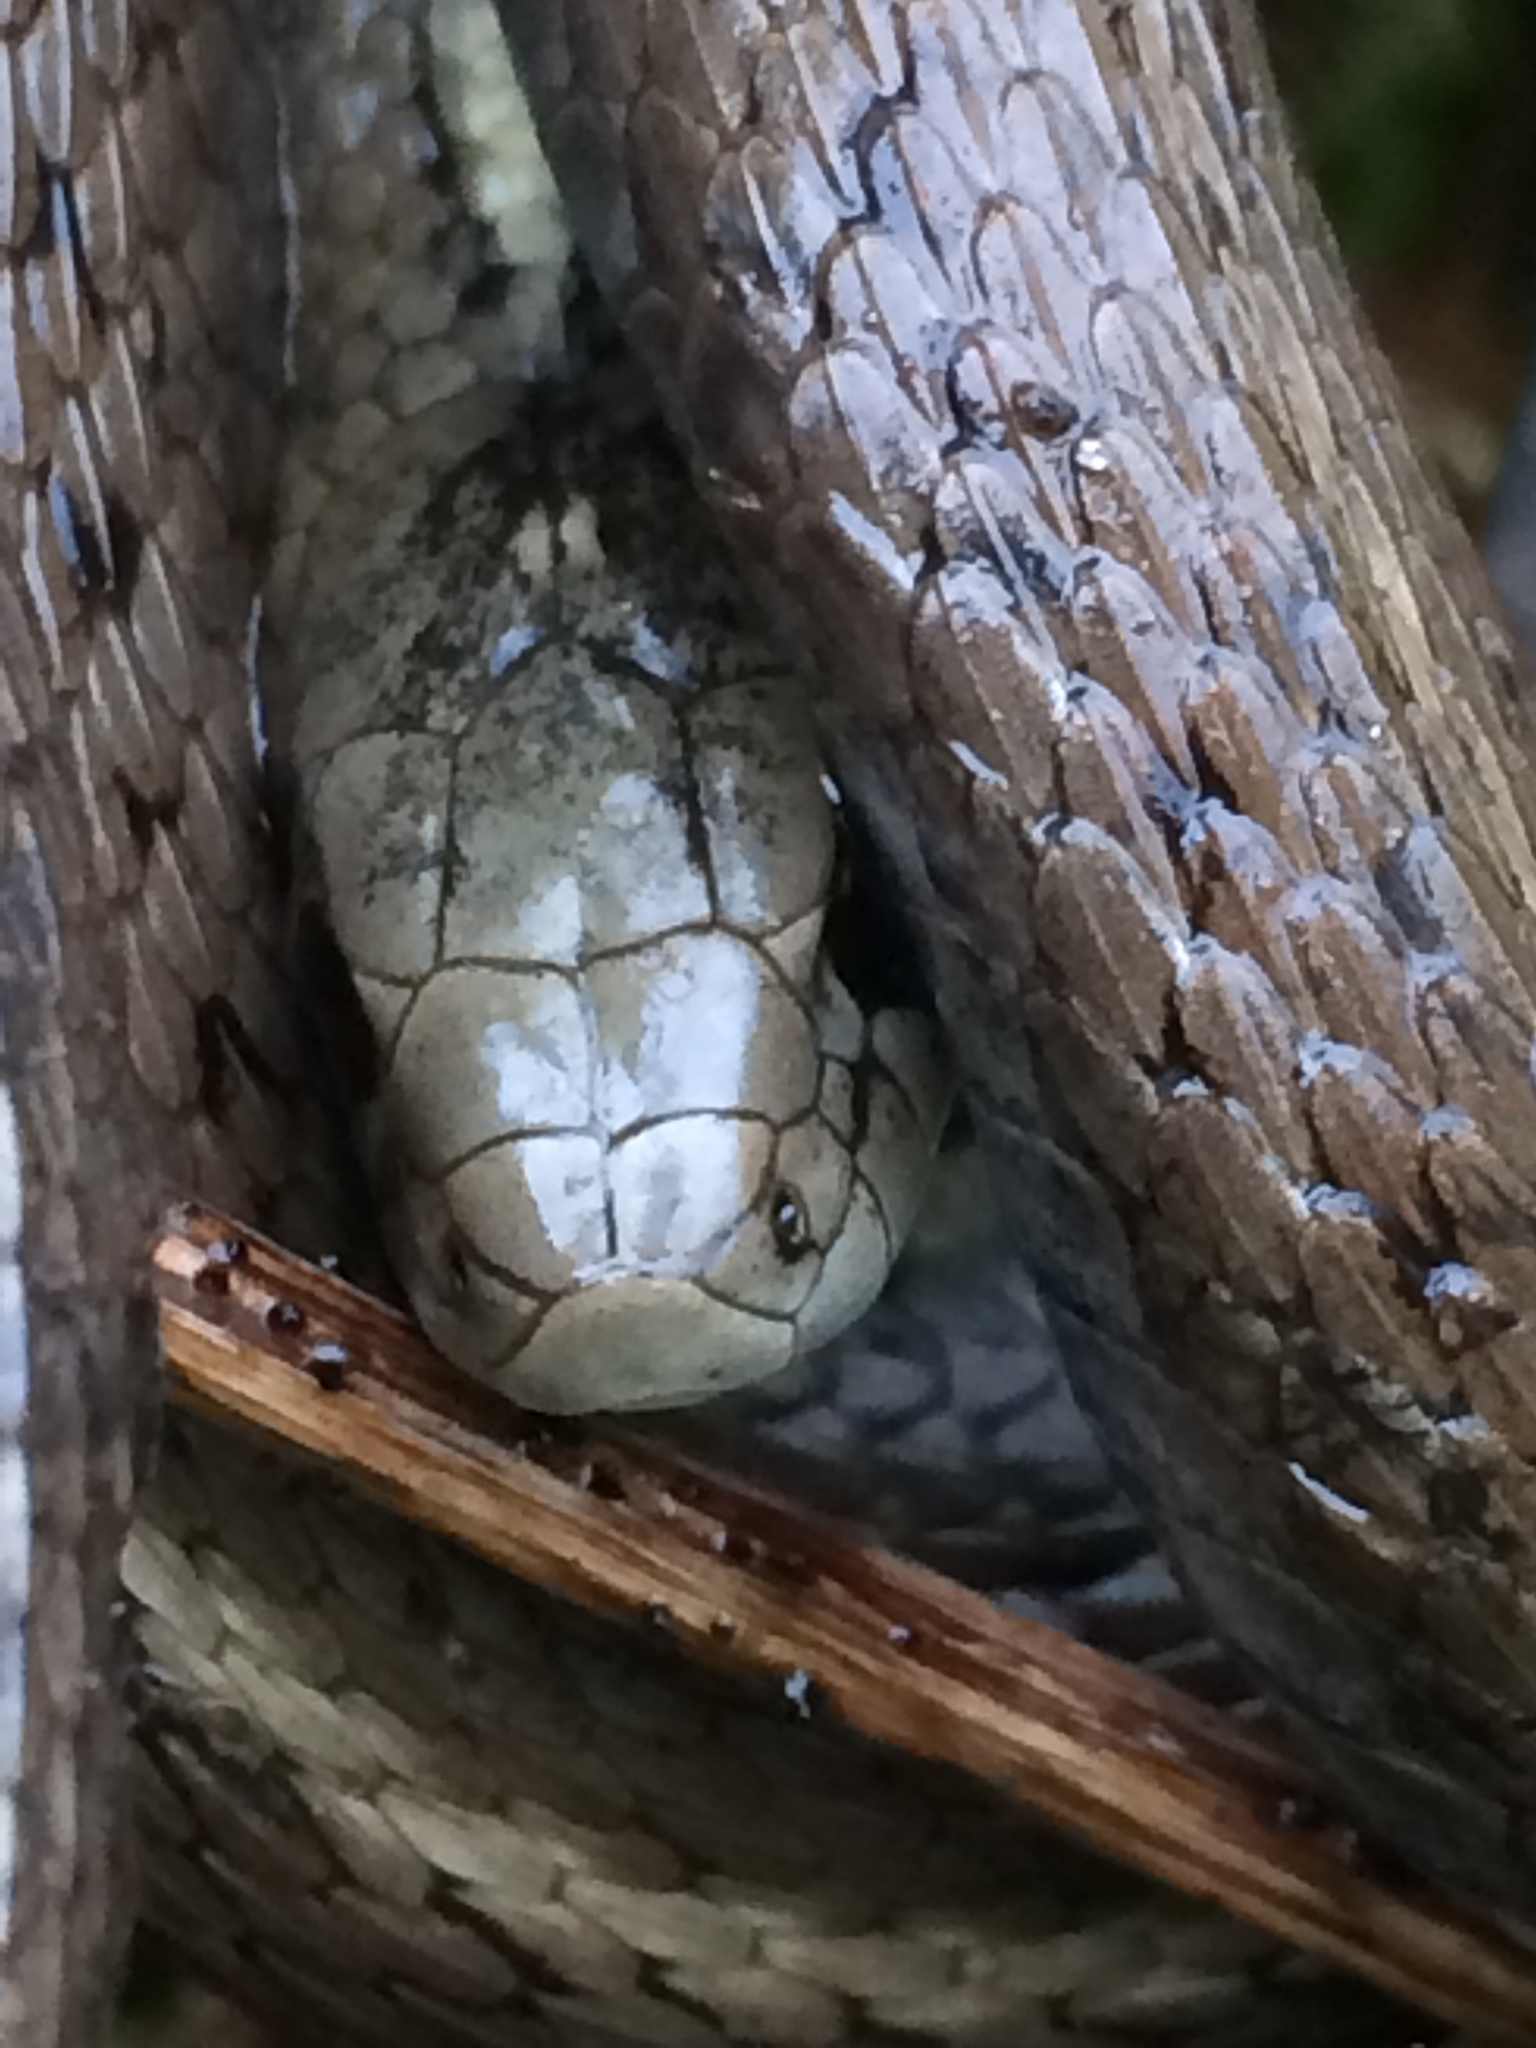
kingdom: Animalia
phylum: Chordata
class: Squamata
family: Colubridae
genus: Thamnophis
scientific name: Thamnophis ordinoides
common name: Northwestern garter snake
